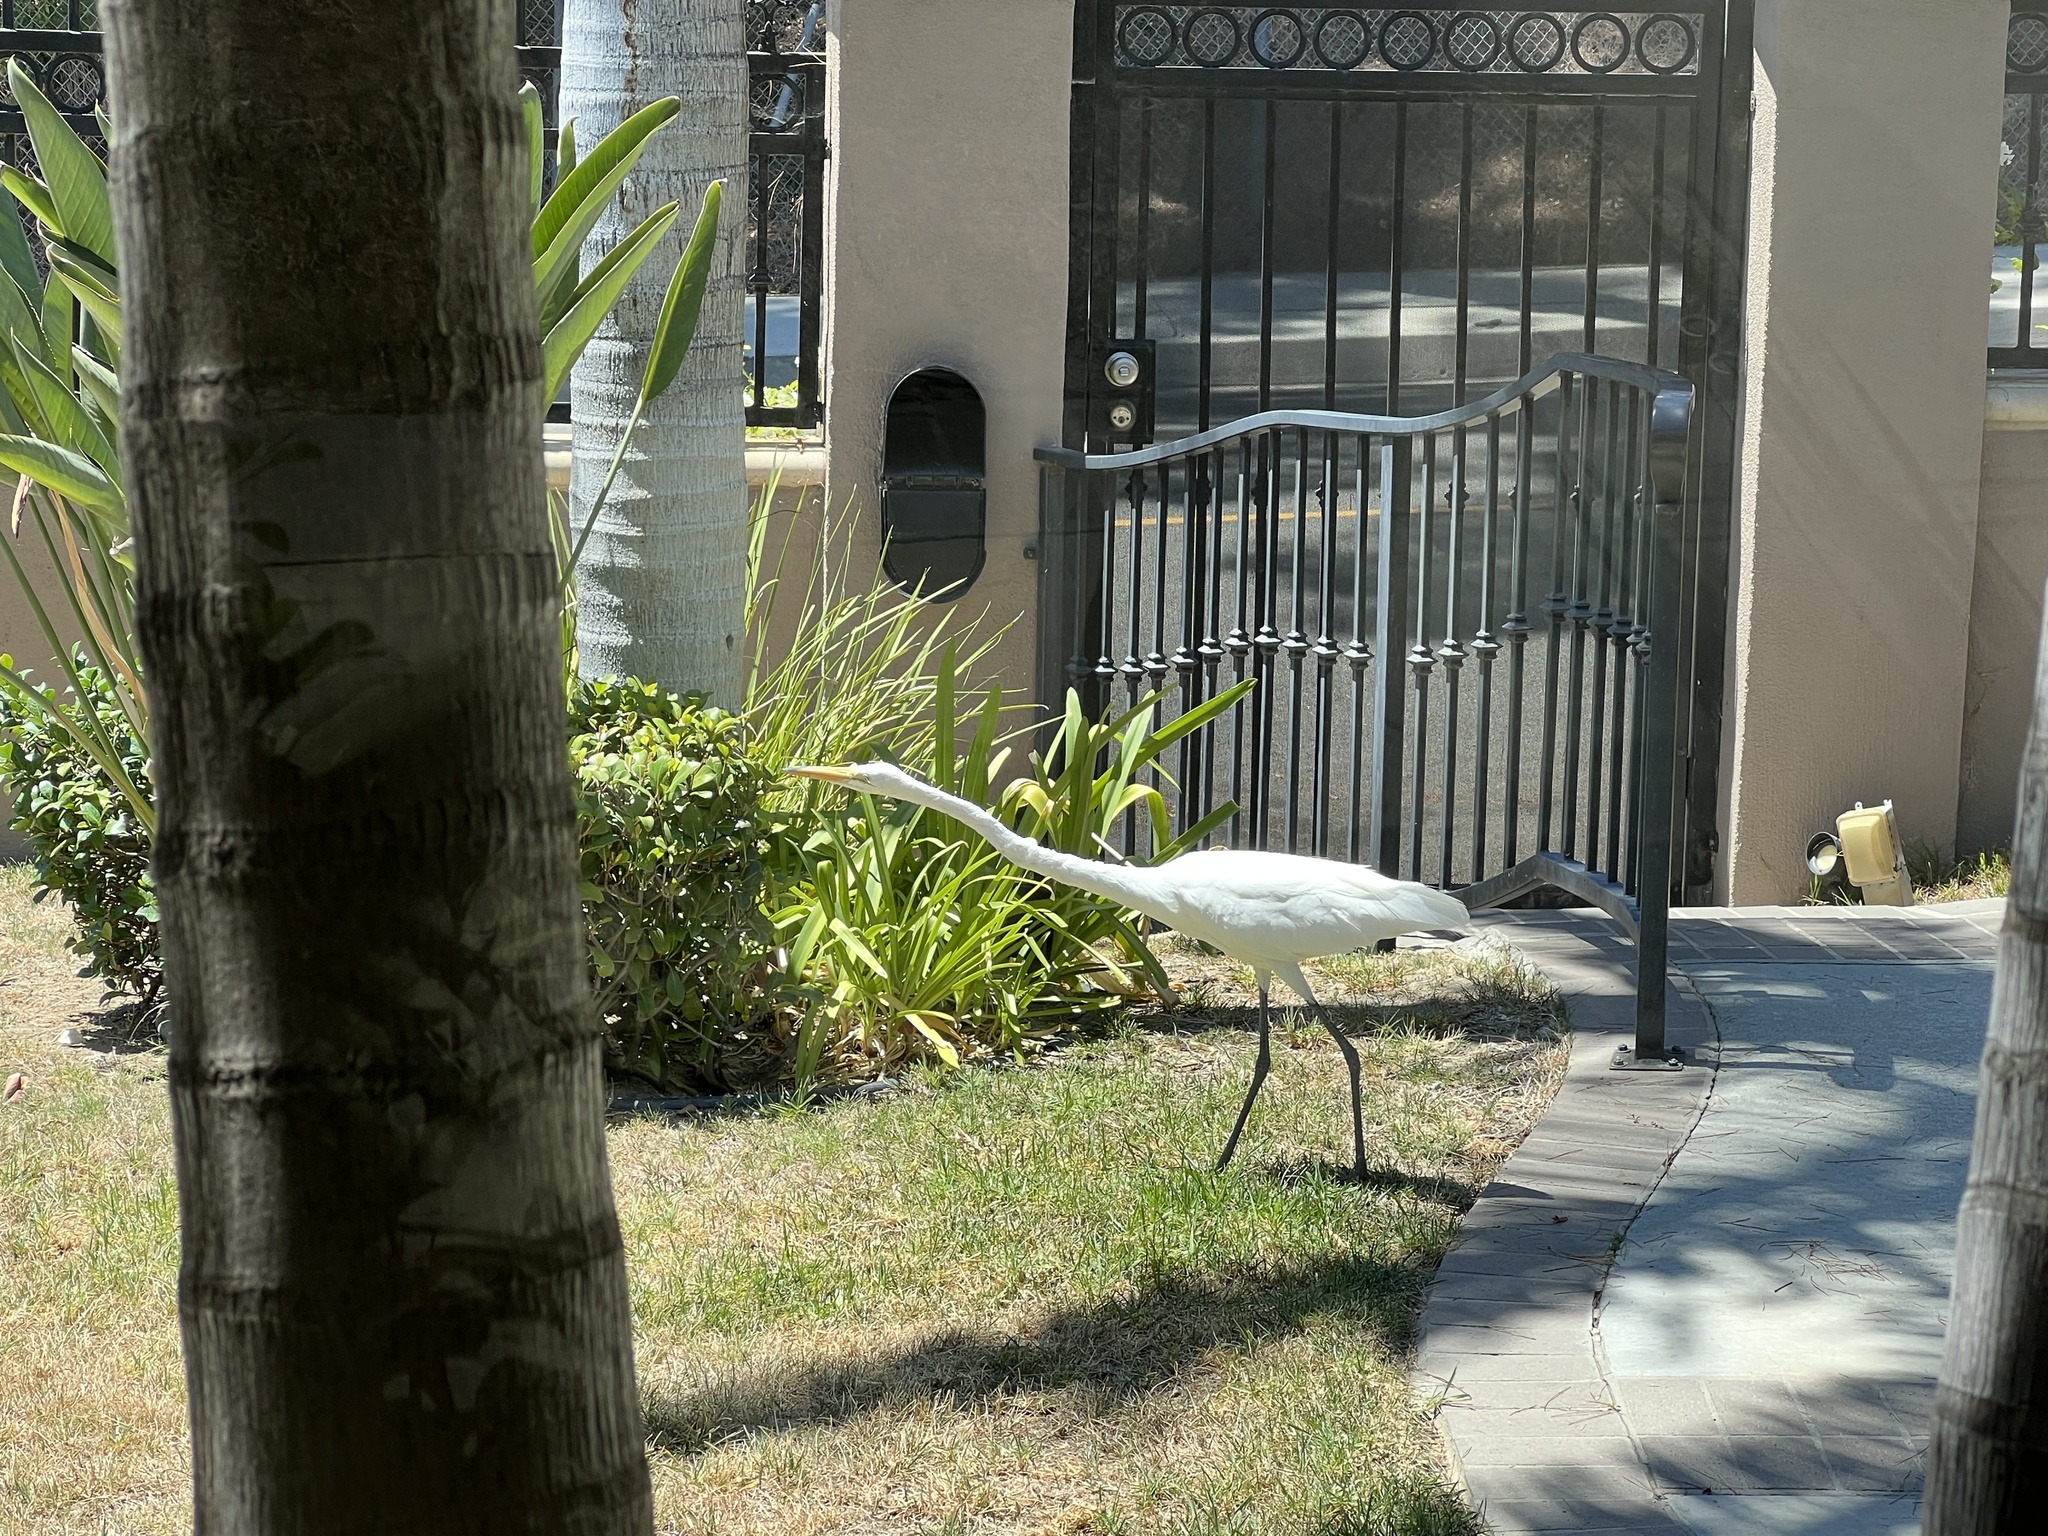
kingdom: Animalia
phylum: Chordata
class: Aves
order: Pelecaniformes
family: Ardeidae
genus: Ardea
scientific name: Ardea alba
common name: Great egret
